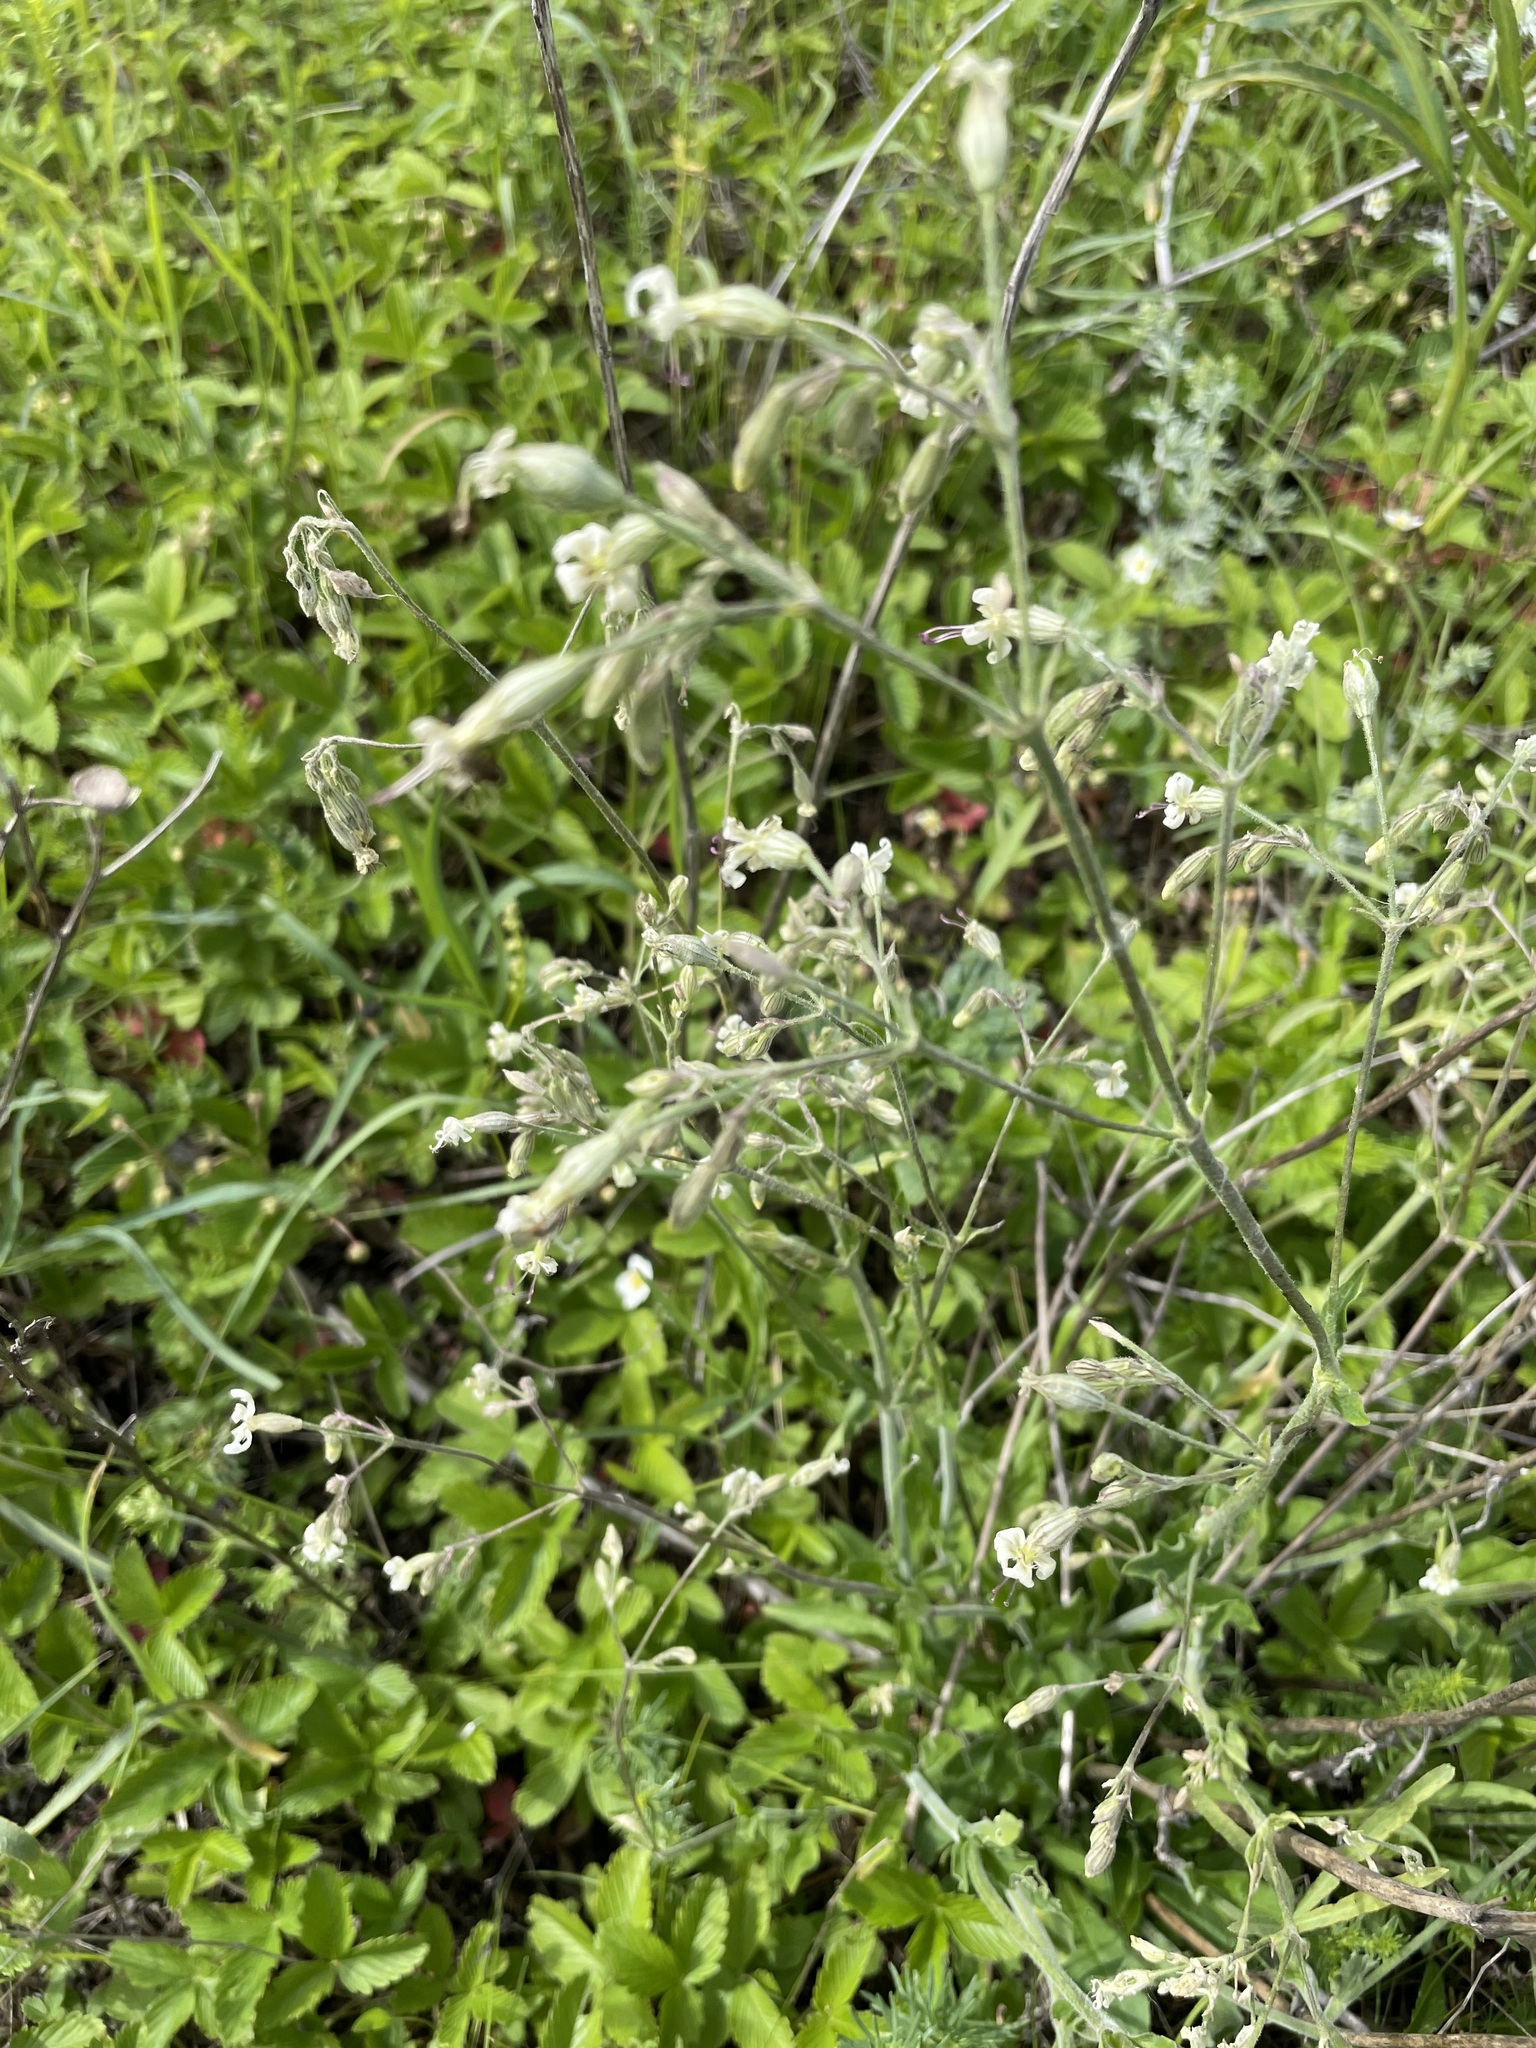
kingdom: Plantae
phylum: Tracheophyta
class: Magnoliopsida
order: Caryophyllales
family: Caryophyllaceae
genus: Silene
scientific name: Silene nutans
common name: Nottingham catchfly
